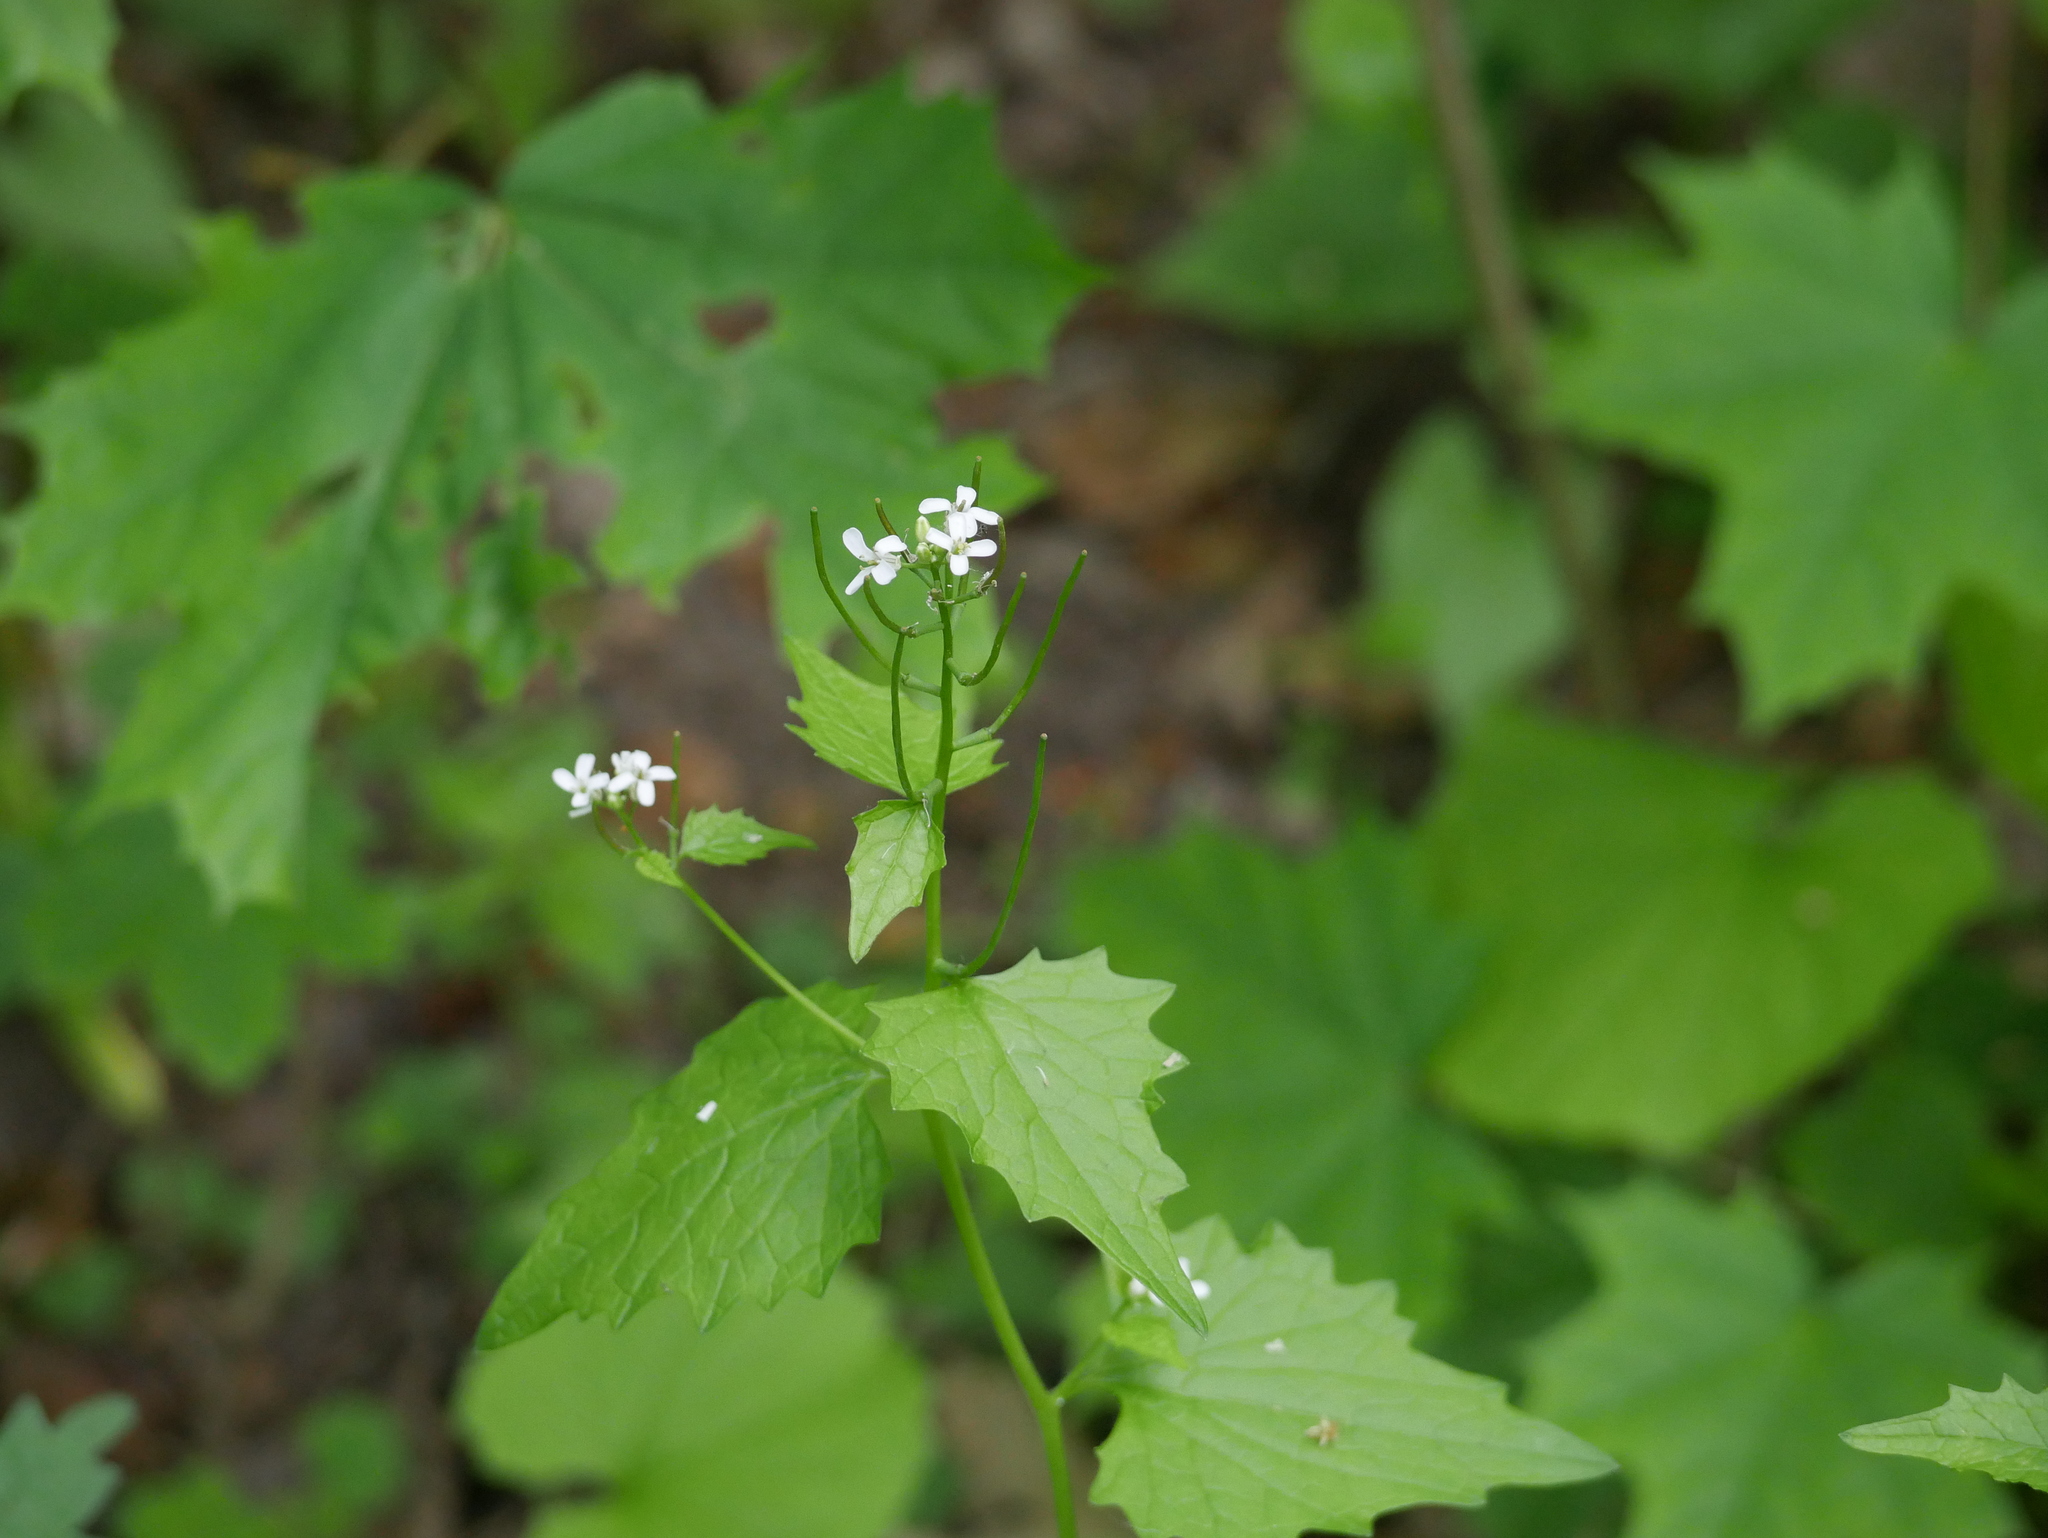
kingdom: Plantae
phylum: Tracheophyta
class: Magnoliopsida
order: Brassicales
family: Brassicaceae
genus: Alliaria
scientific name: Alliaria petiolata
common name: Garlic mustard
